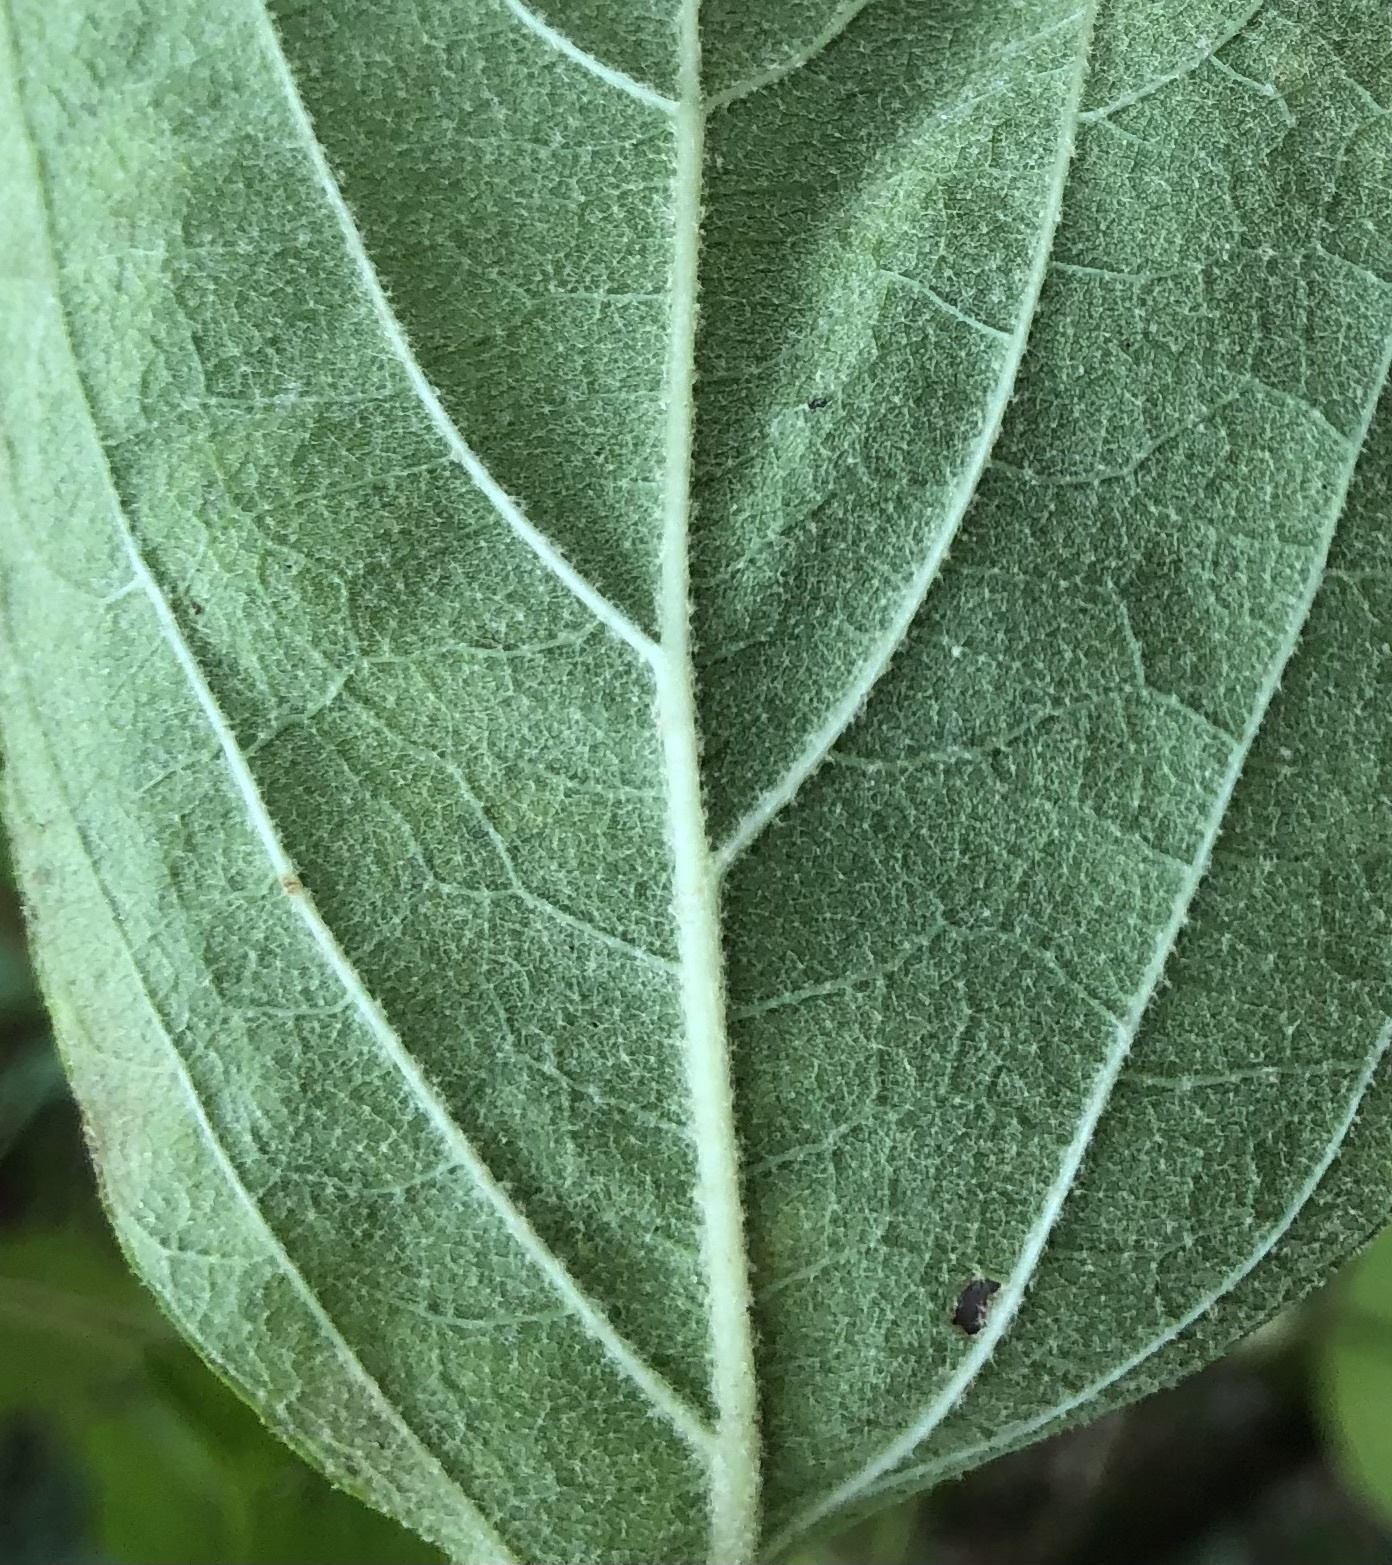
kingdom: Plantae
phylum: Tracheophyta
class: Magnoliopsida
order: Lamiales
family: Lamiaceae
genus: Callicarpa
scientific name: Callicarpa americana
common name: American beautyberry
